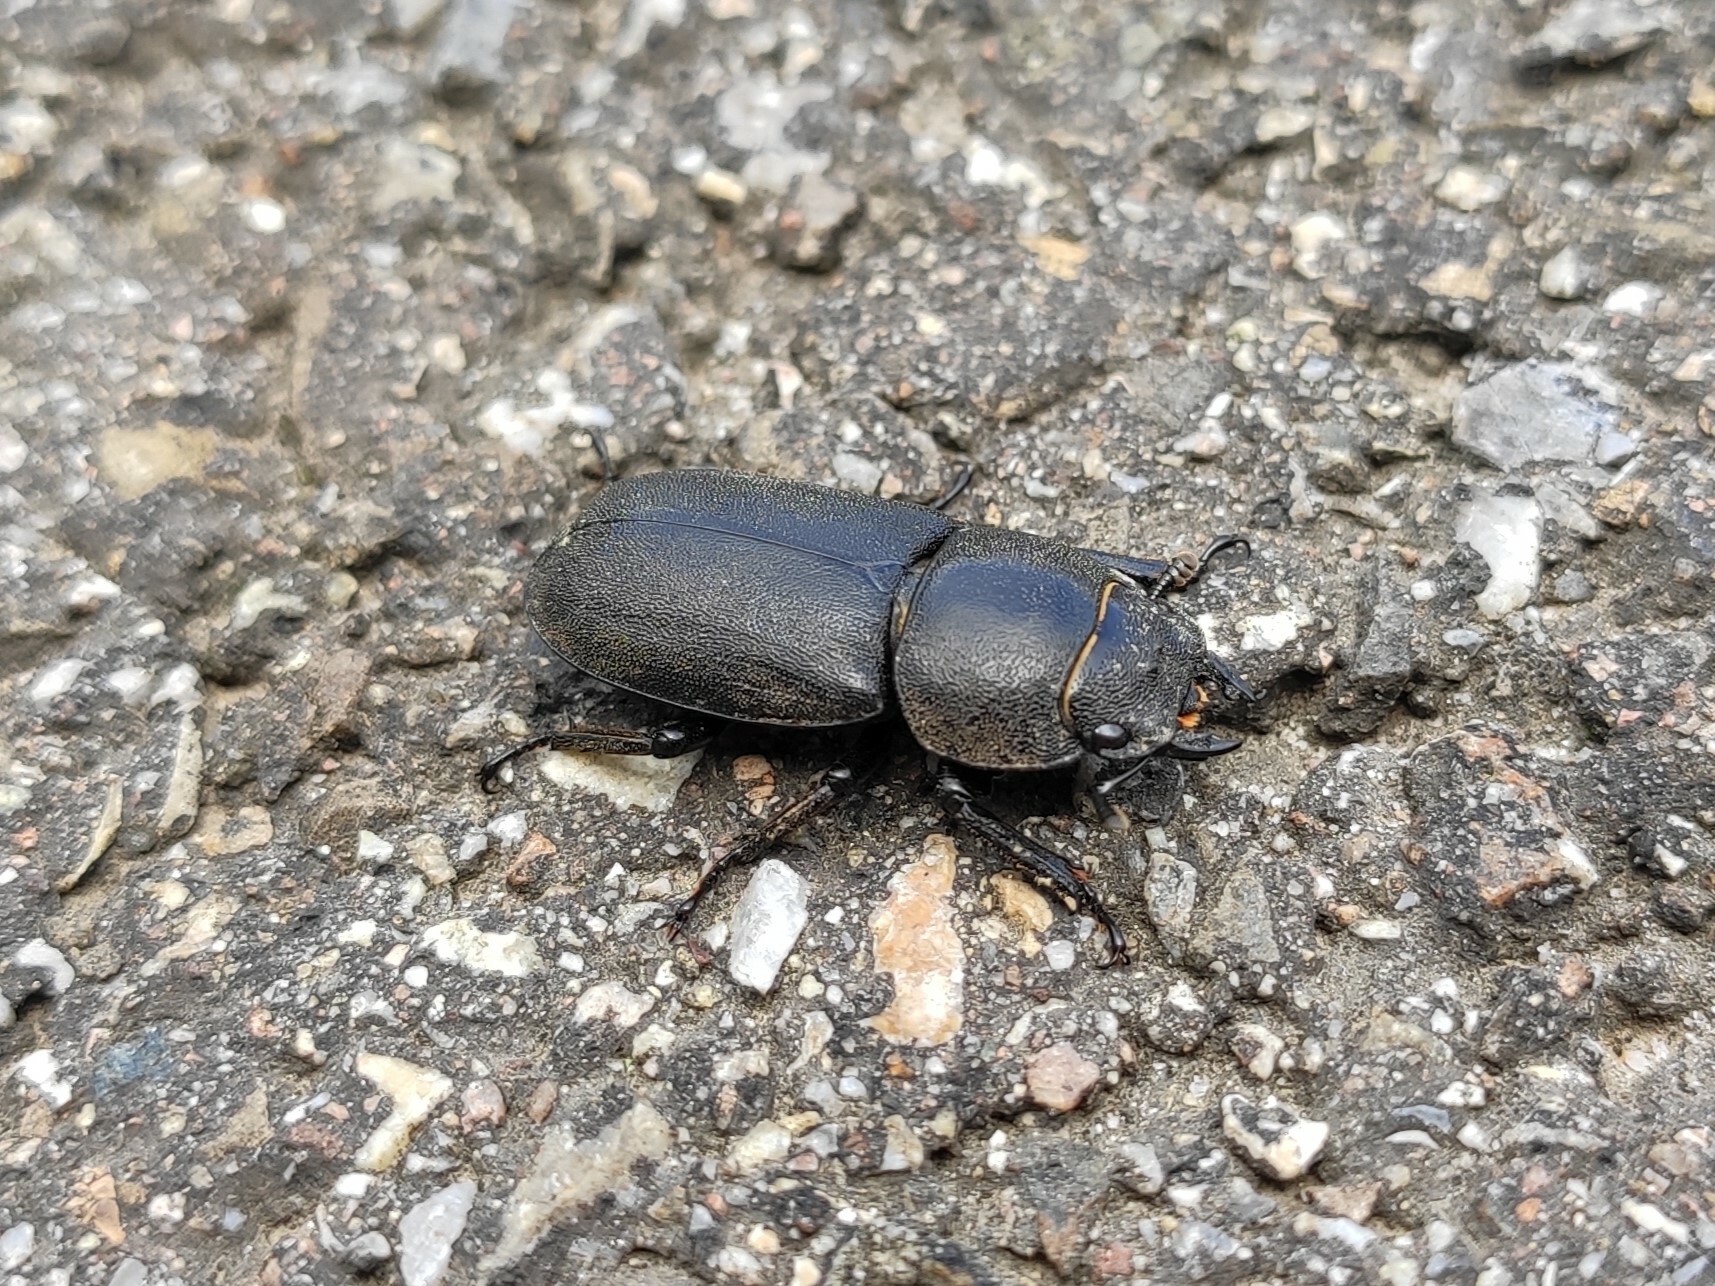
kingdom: Animalia
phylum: Arthropoda
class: Insecta
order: Coleoptera
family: Lucanidae
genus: Dorcus
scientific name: Dorcus parallelipipedus
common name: Lesser stag beetle
